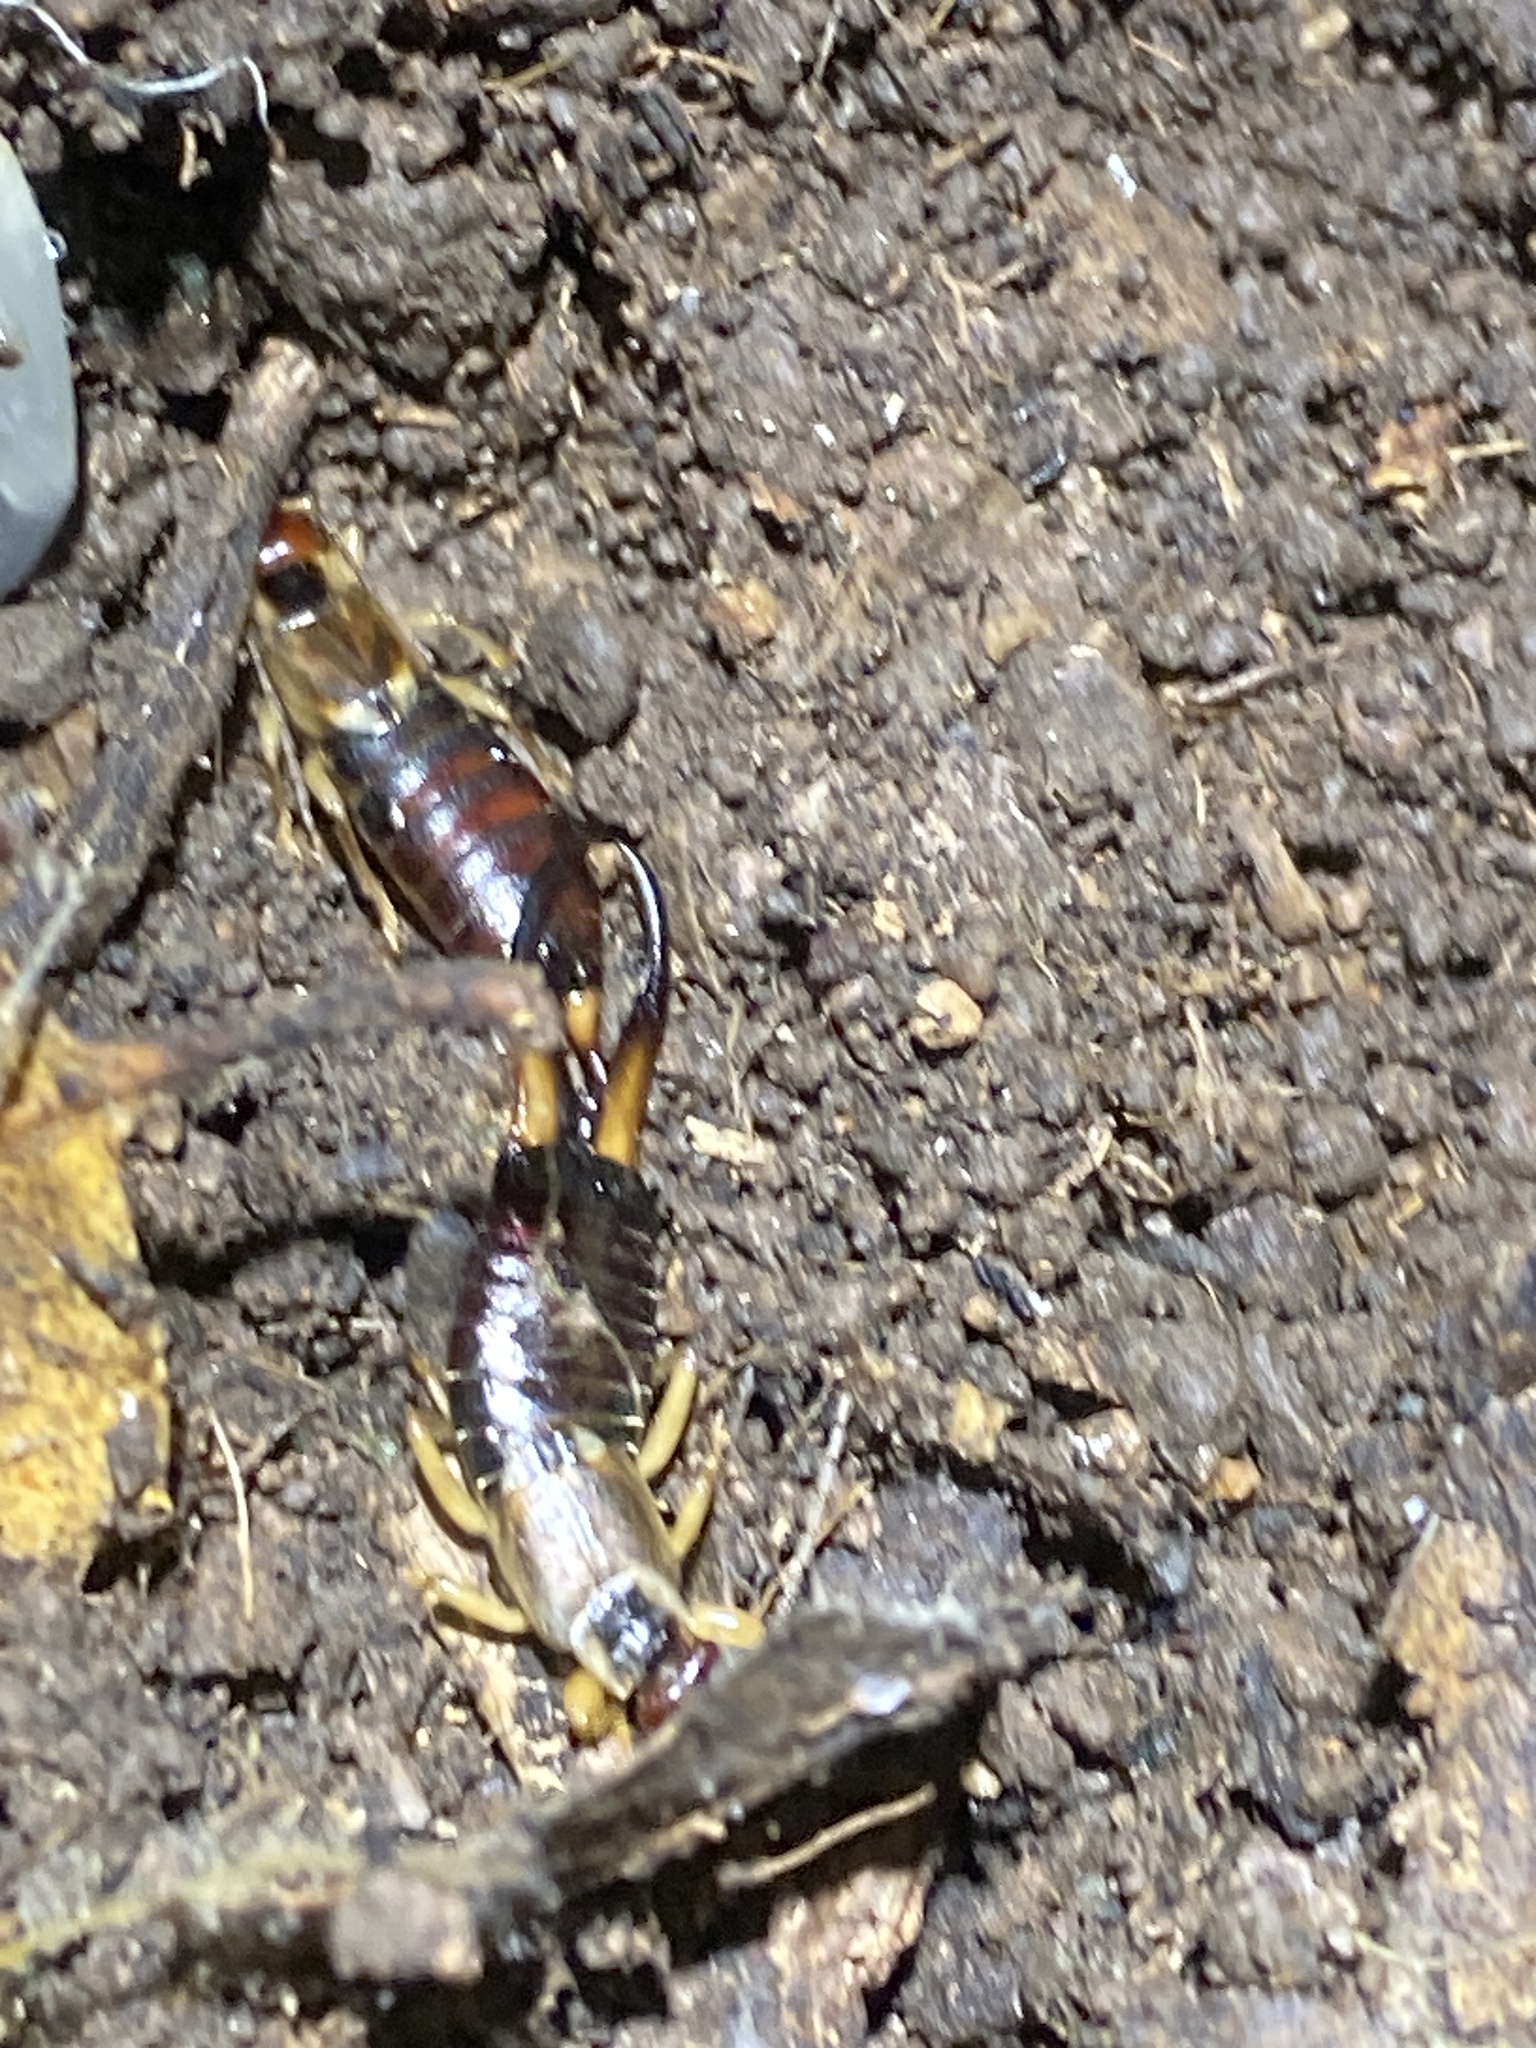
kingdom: Animalia
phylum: Arthropoda
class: Insecta
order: Dermaptera
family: Forficulidae
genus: Forficula
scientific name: Forficula
